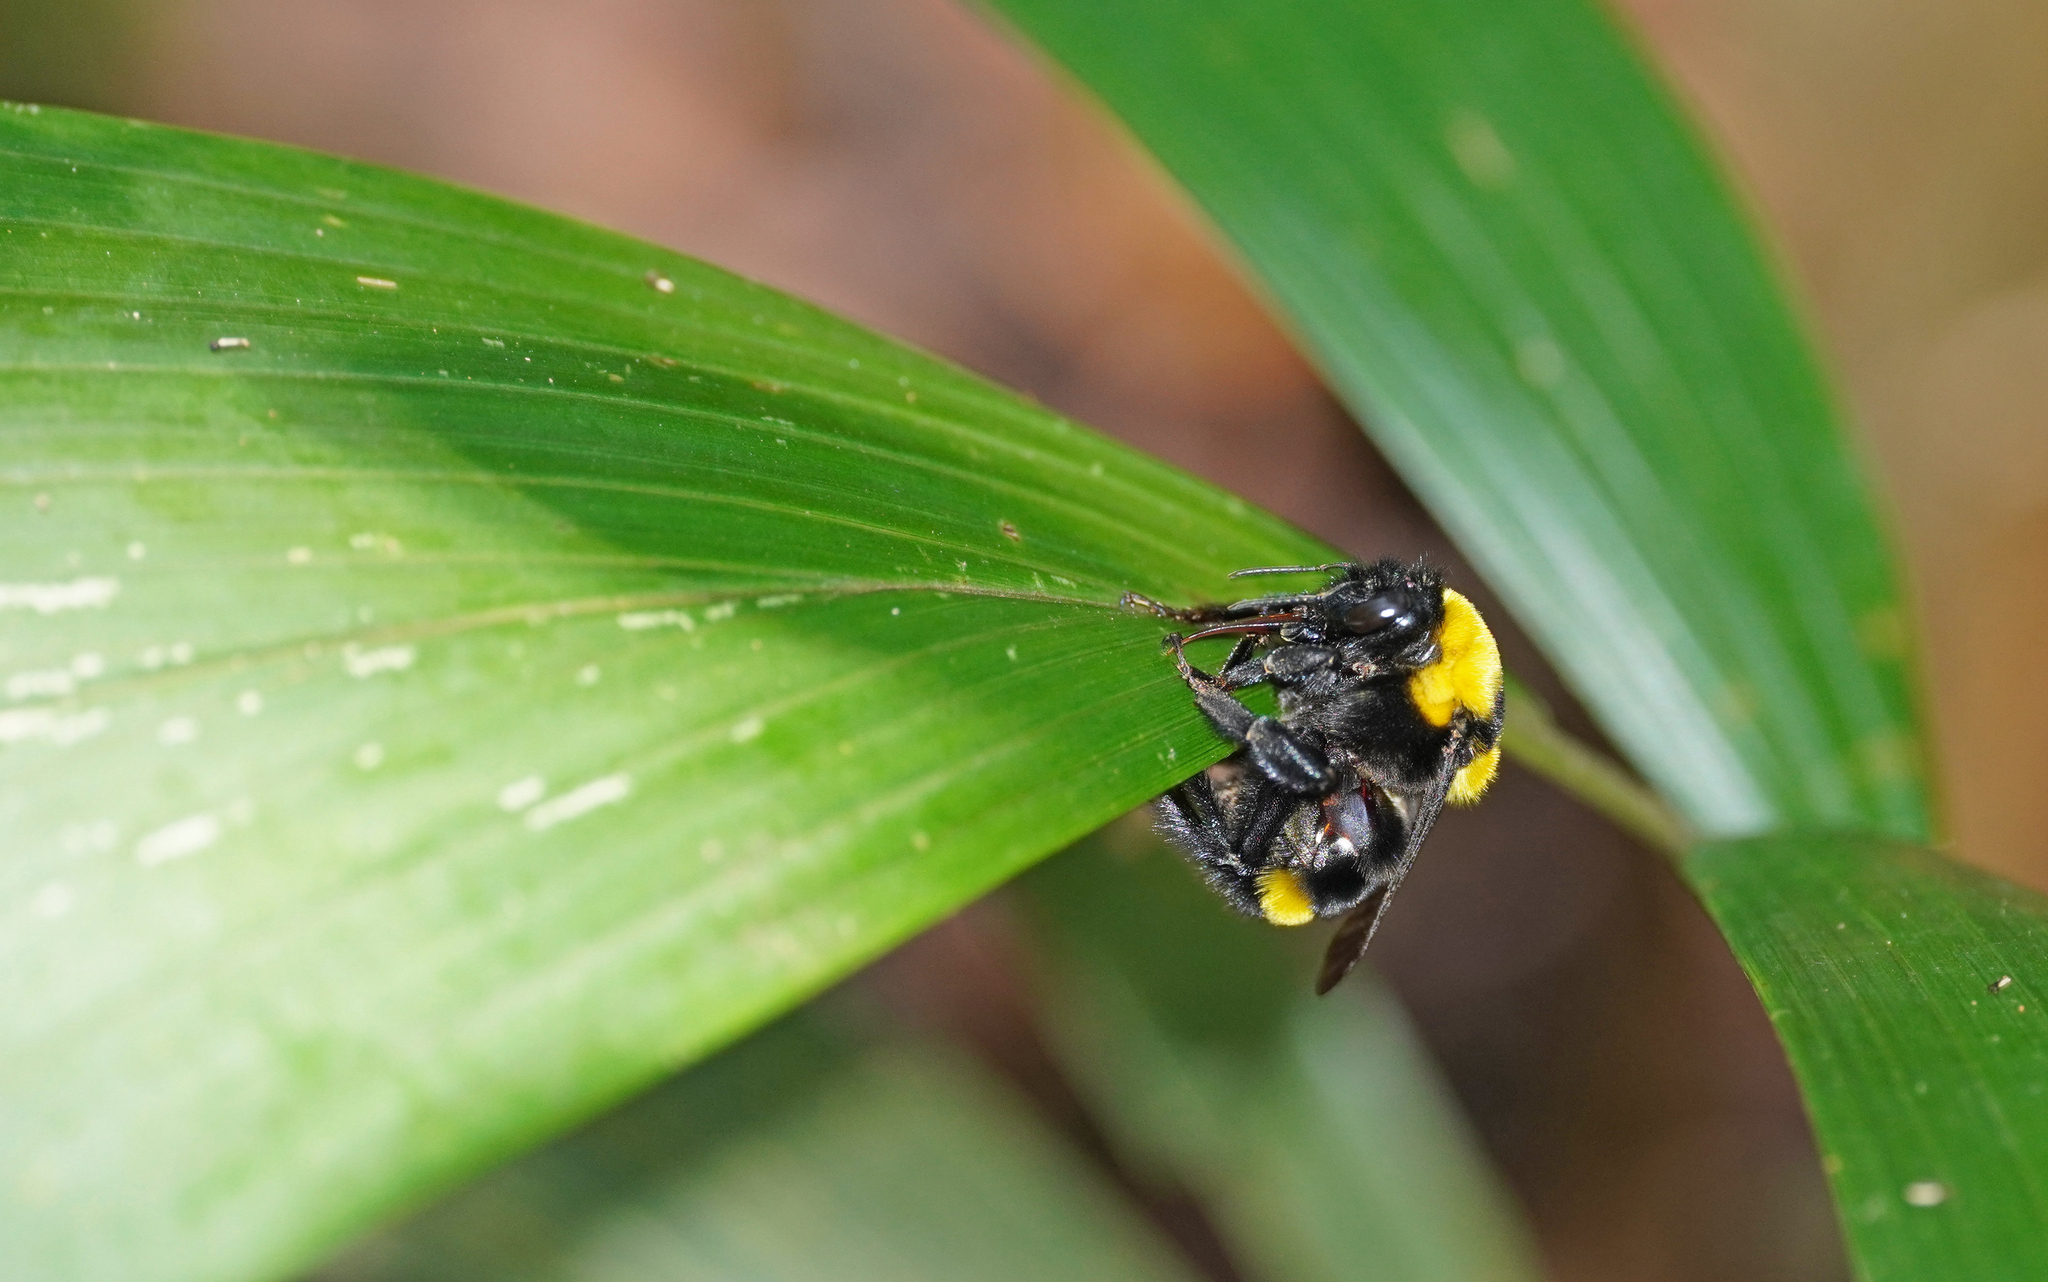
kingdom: Animalia
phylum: Arthropoda
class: Insecta
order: Hymenoptera
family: Apidae
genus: Bombus
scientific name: Bombus transversalis
